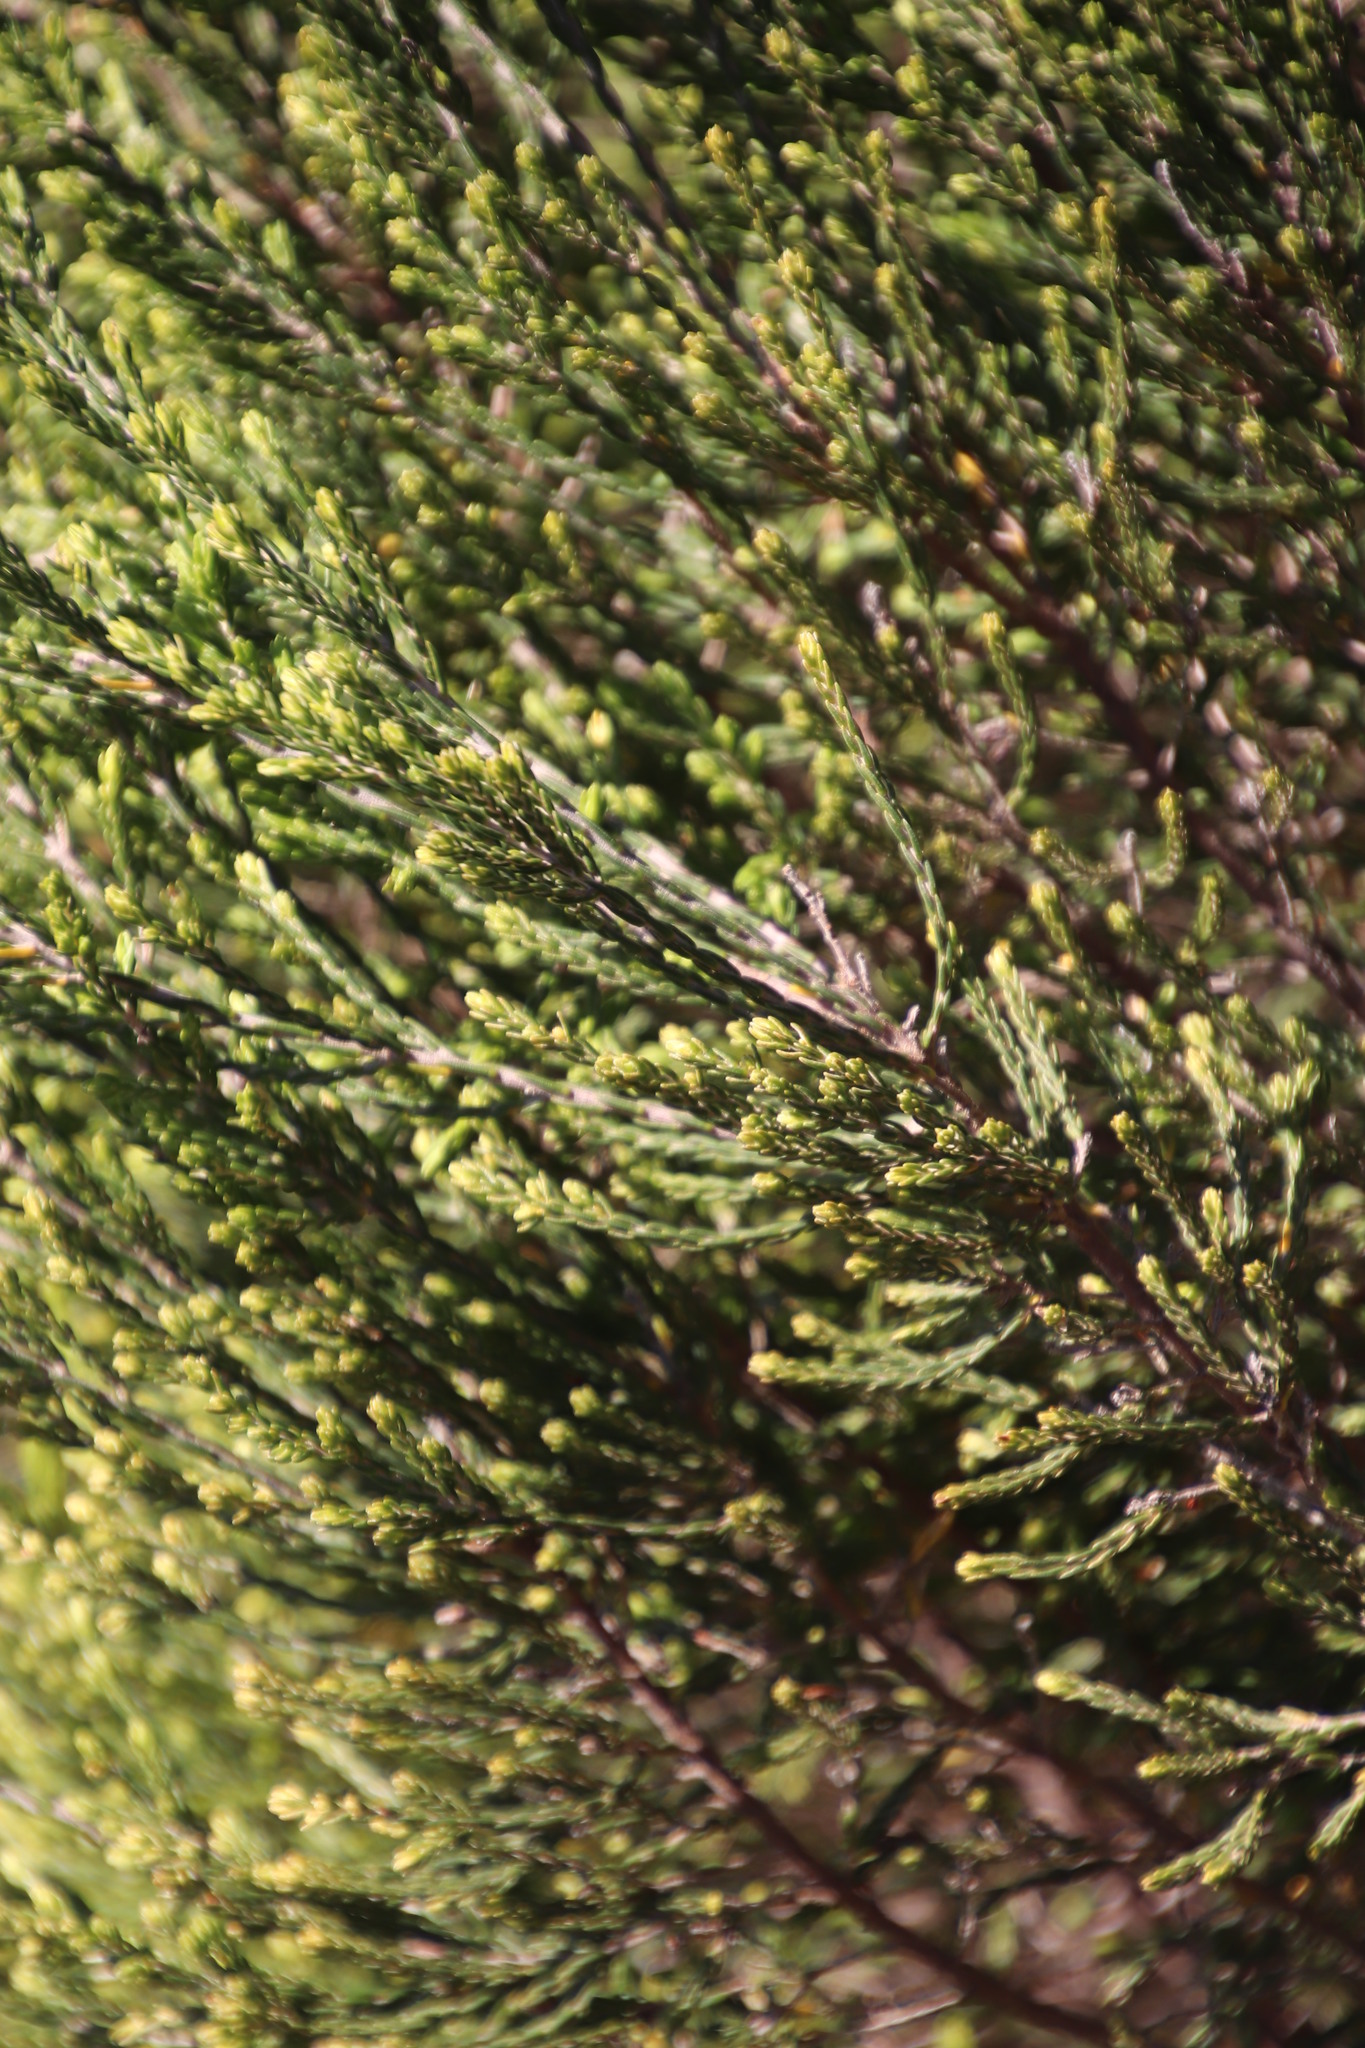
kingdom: Plantae
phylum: Tracheophyta
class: Magnoliopsida
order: Malvales
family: Thymelaeaceae
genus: Passerina
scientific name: Passerina corymbosa
